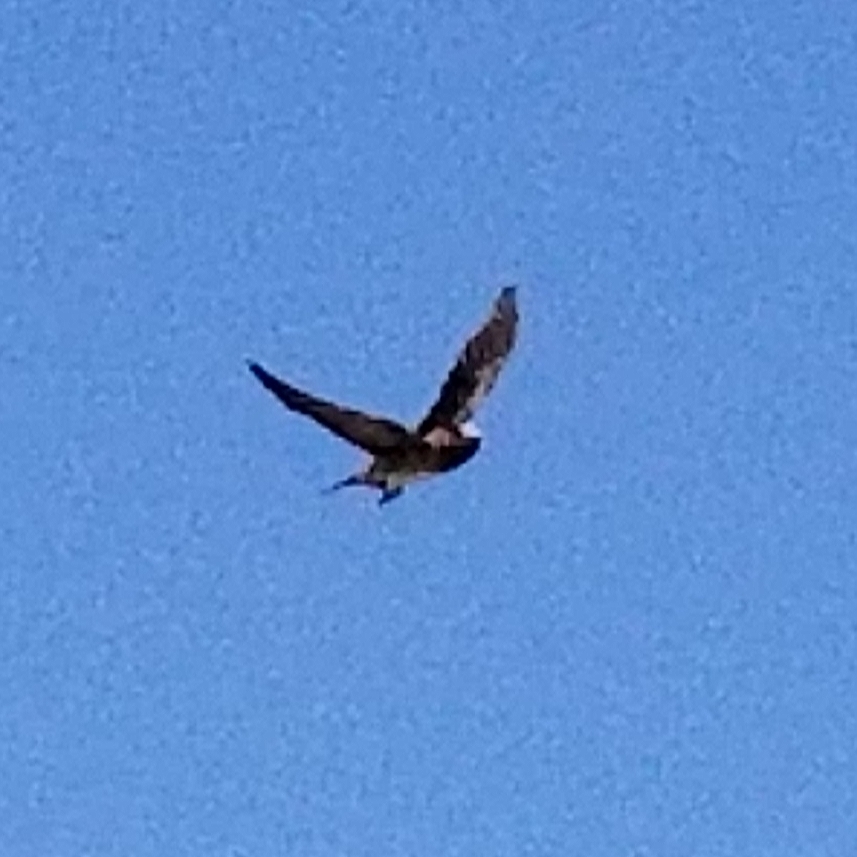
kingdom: Animalia
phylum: Chordata
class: Aves
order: Passeriformes
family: Hirundinidae
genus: Petrochelidon
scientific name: Petrochelidon pyrrhonota
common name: American cliff swallow
